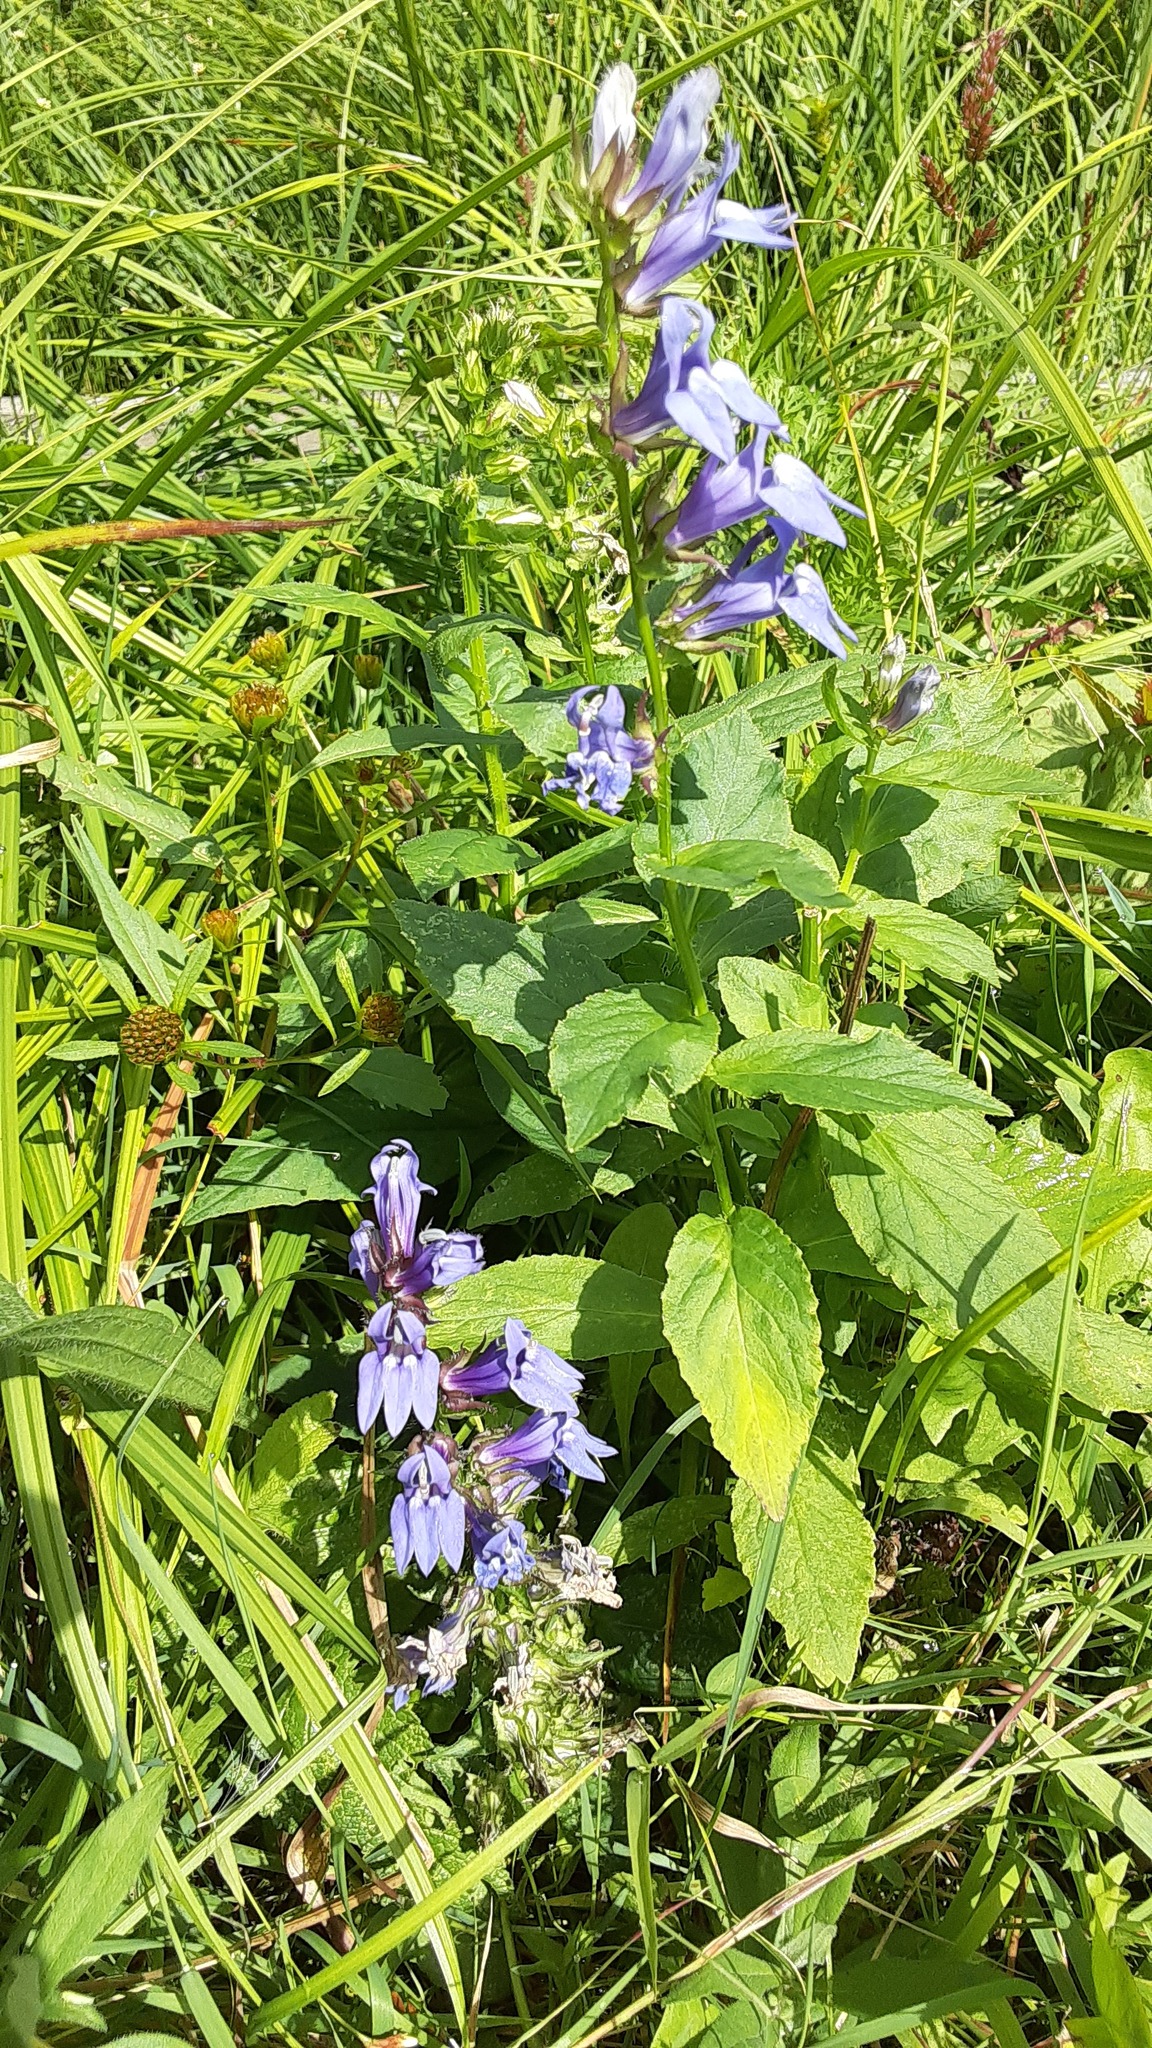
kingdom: Plantae
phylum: Tracheophyta
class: Magnoliopsida
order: Asterales
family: Campanulaceae
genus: Lobelia
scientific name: Lobelia siphilitica
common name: Great lobelia
